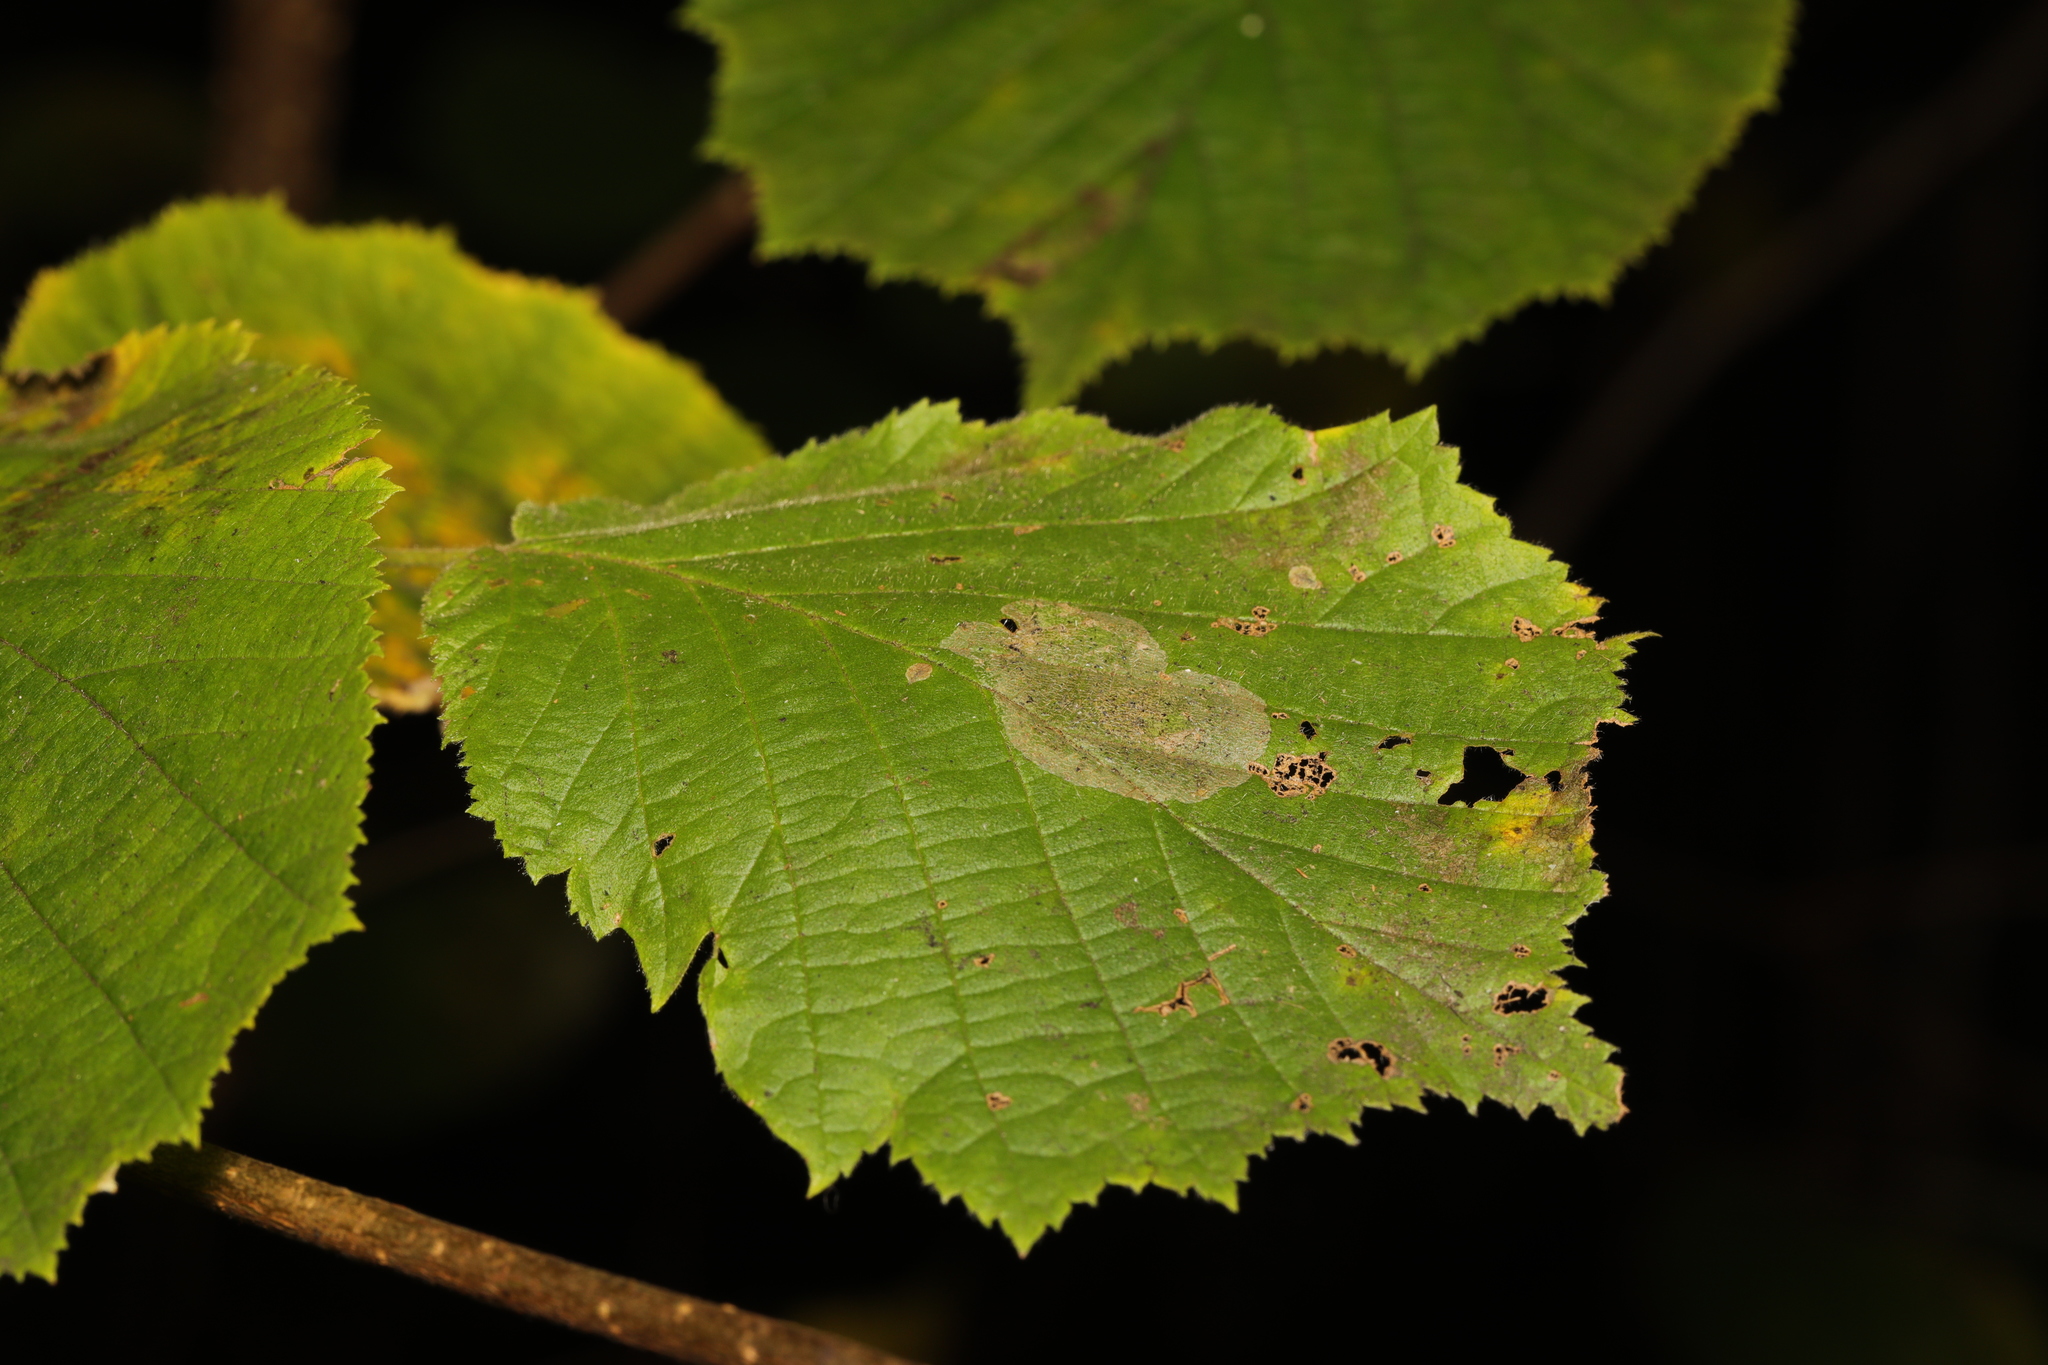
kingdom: Animalia
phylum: Arthropoda
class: Insecta
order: Lepidoptera
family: Gracillariidae
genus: Phyllonorycter
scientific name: Phyllonorycter coryli
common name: Nut-leaf blister moth
